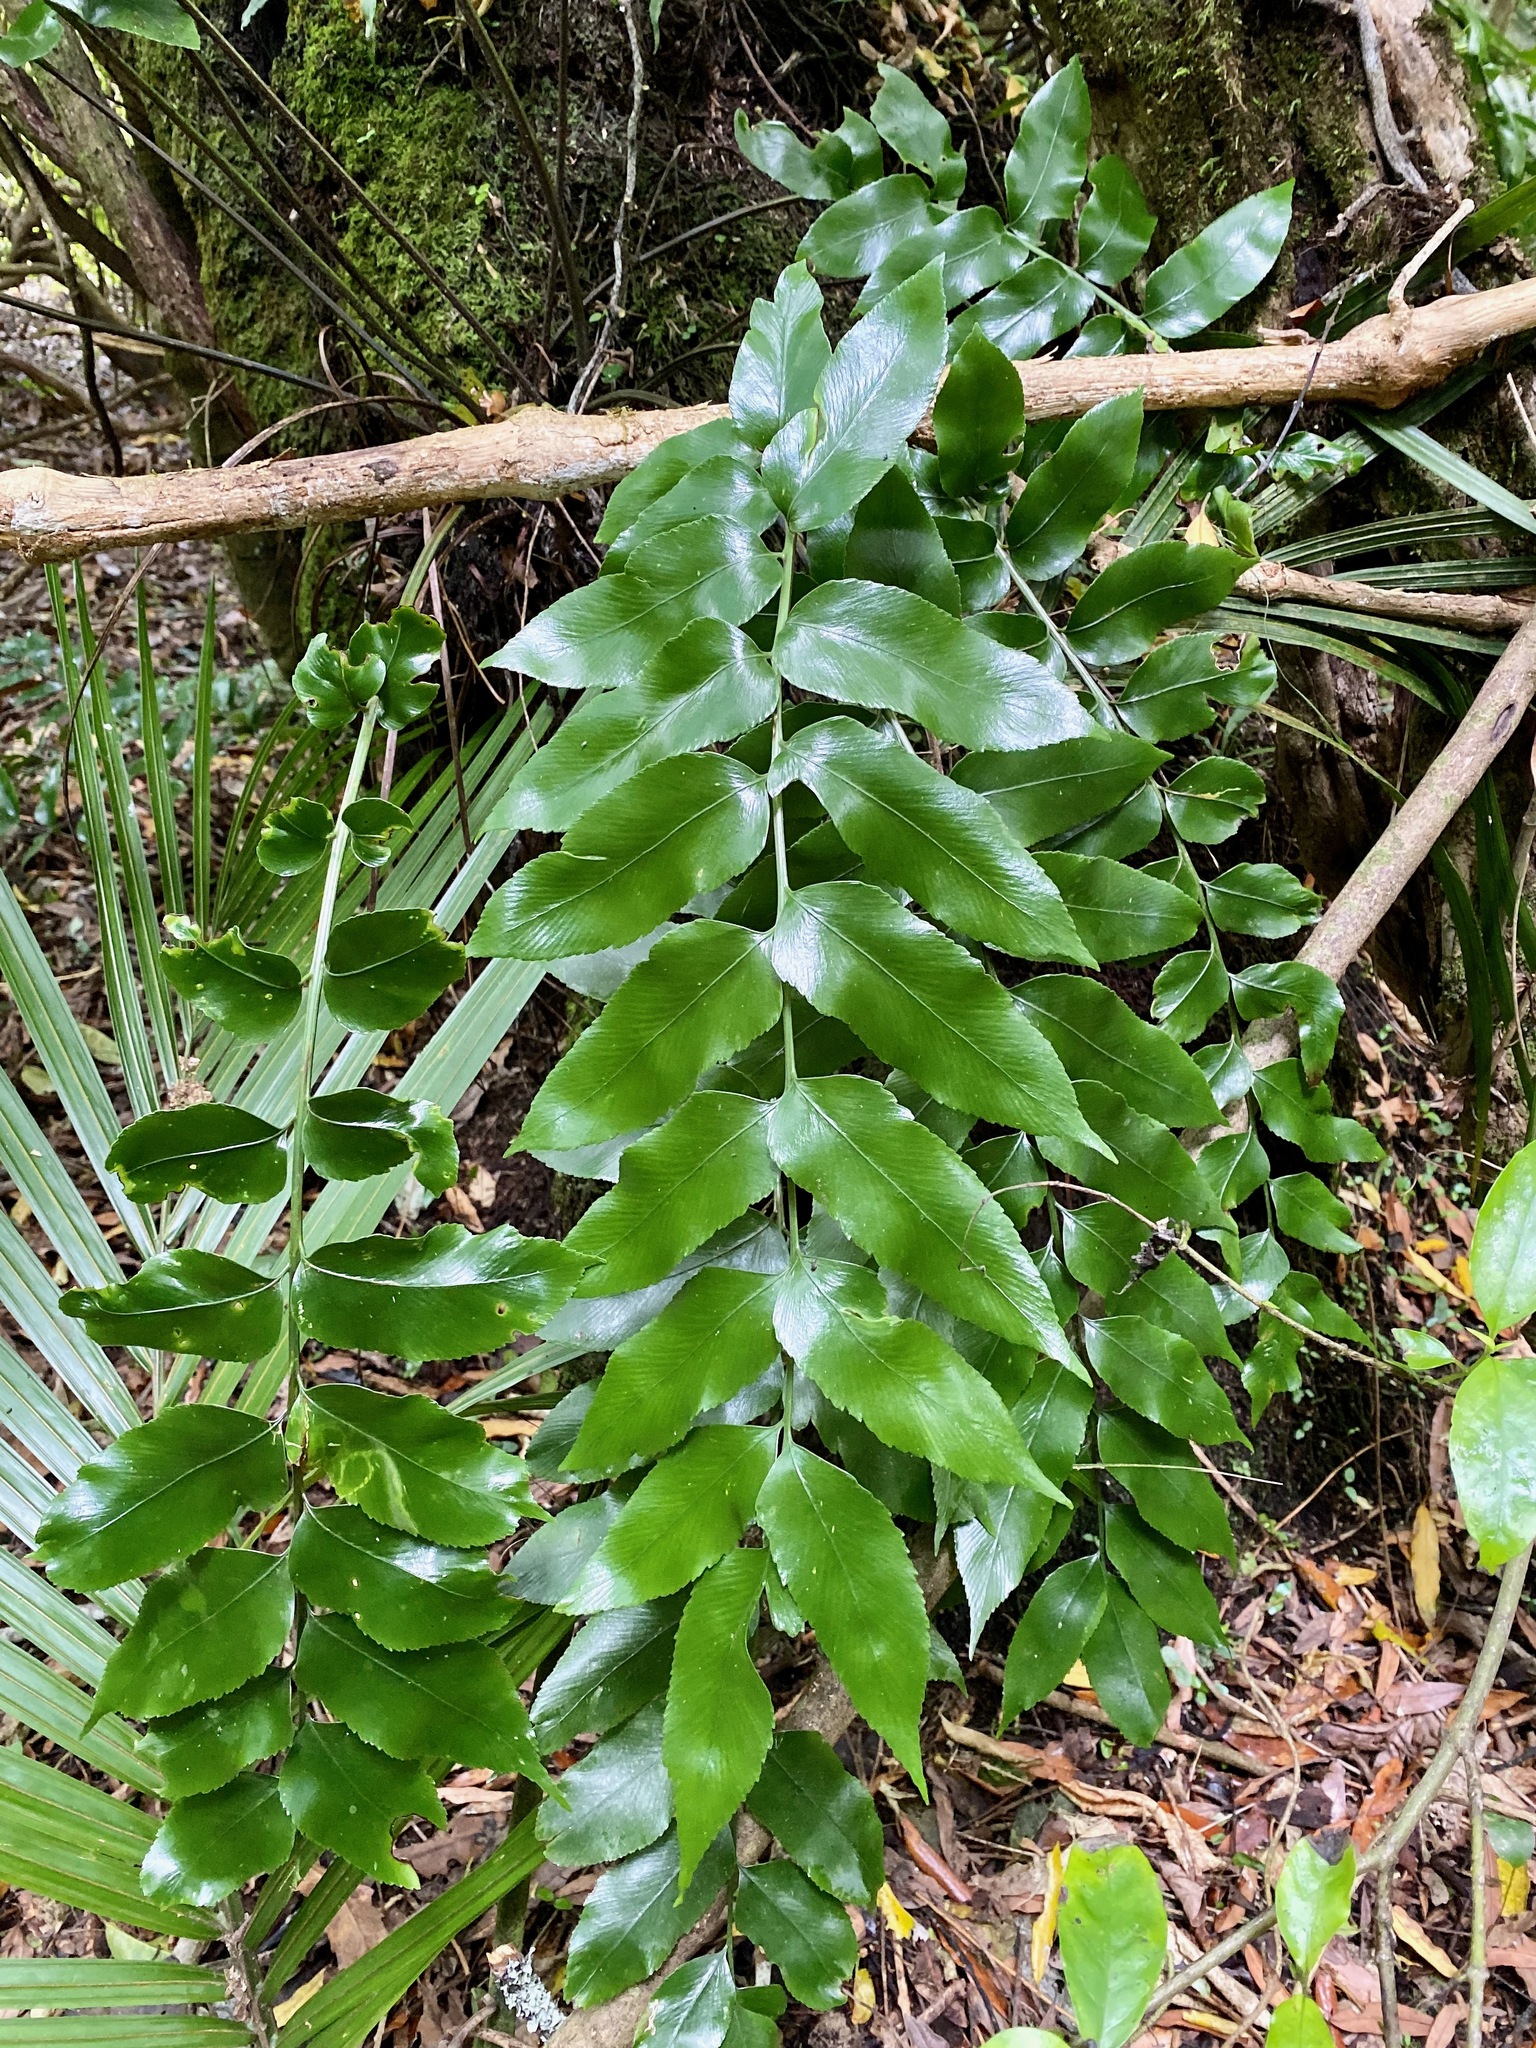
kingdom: Plantae
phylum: Tracheophyta
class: Polypodiopsida
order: Polypodiales
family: Aspleniaceae
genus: Asplenium
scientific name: Asplenium oblongifolium
